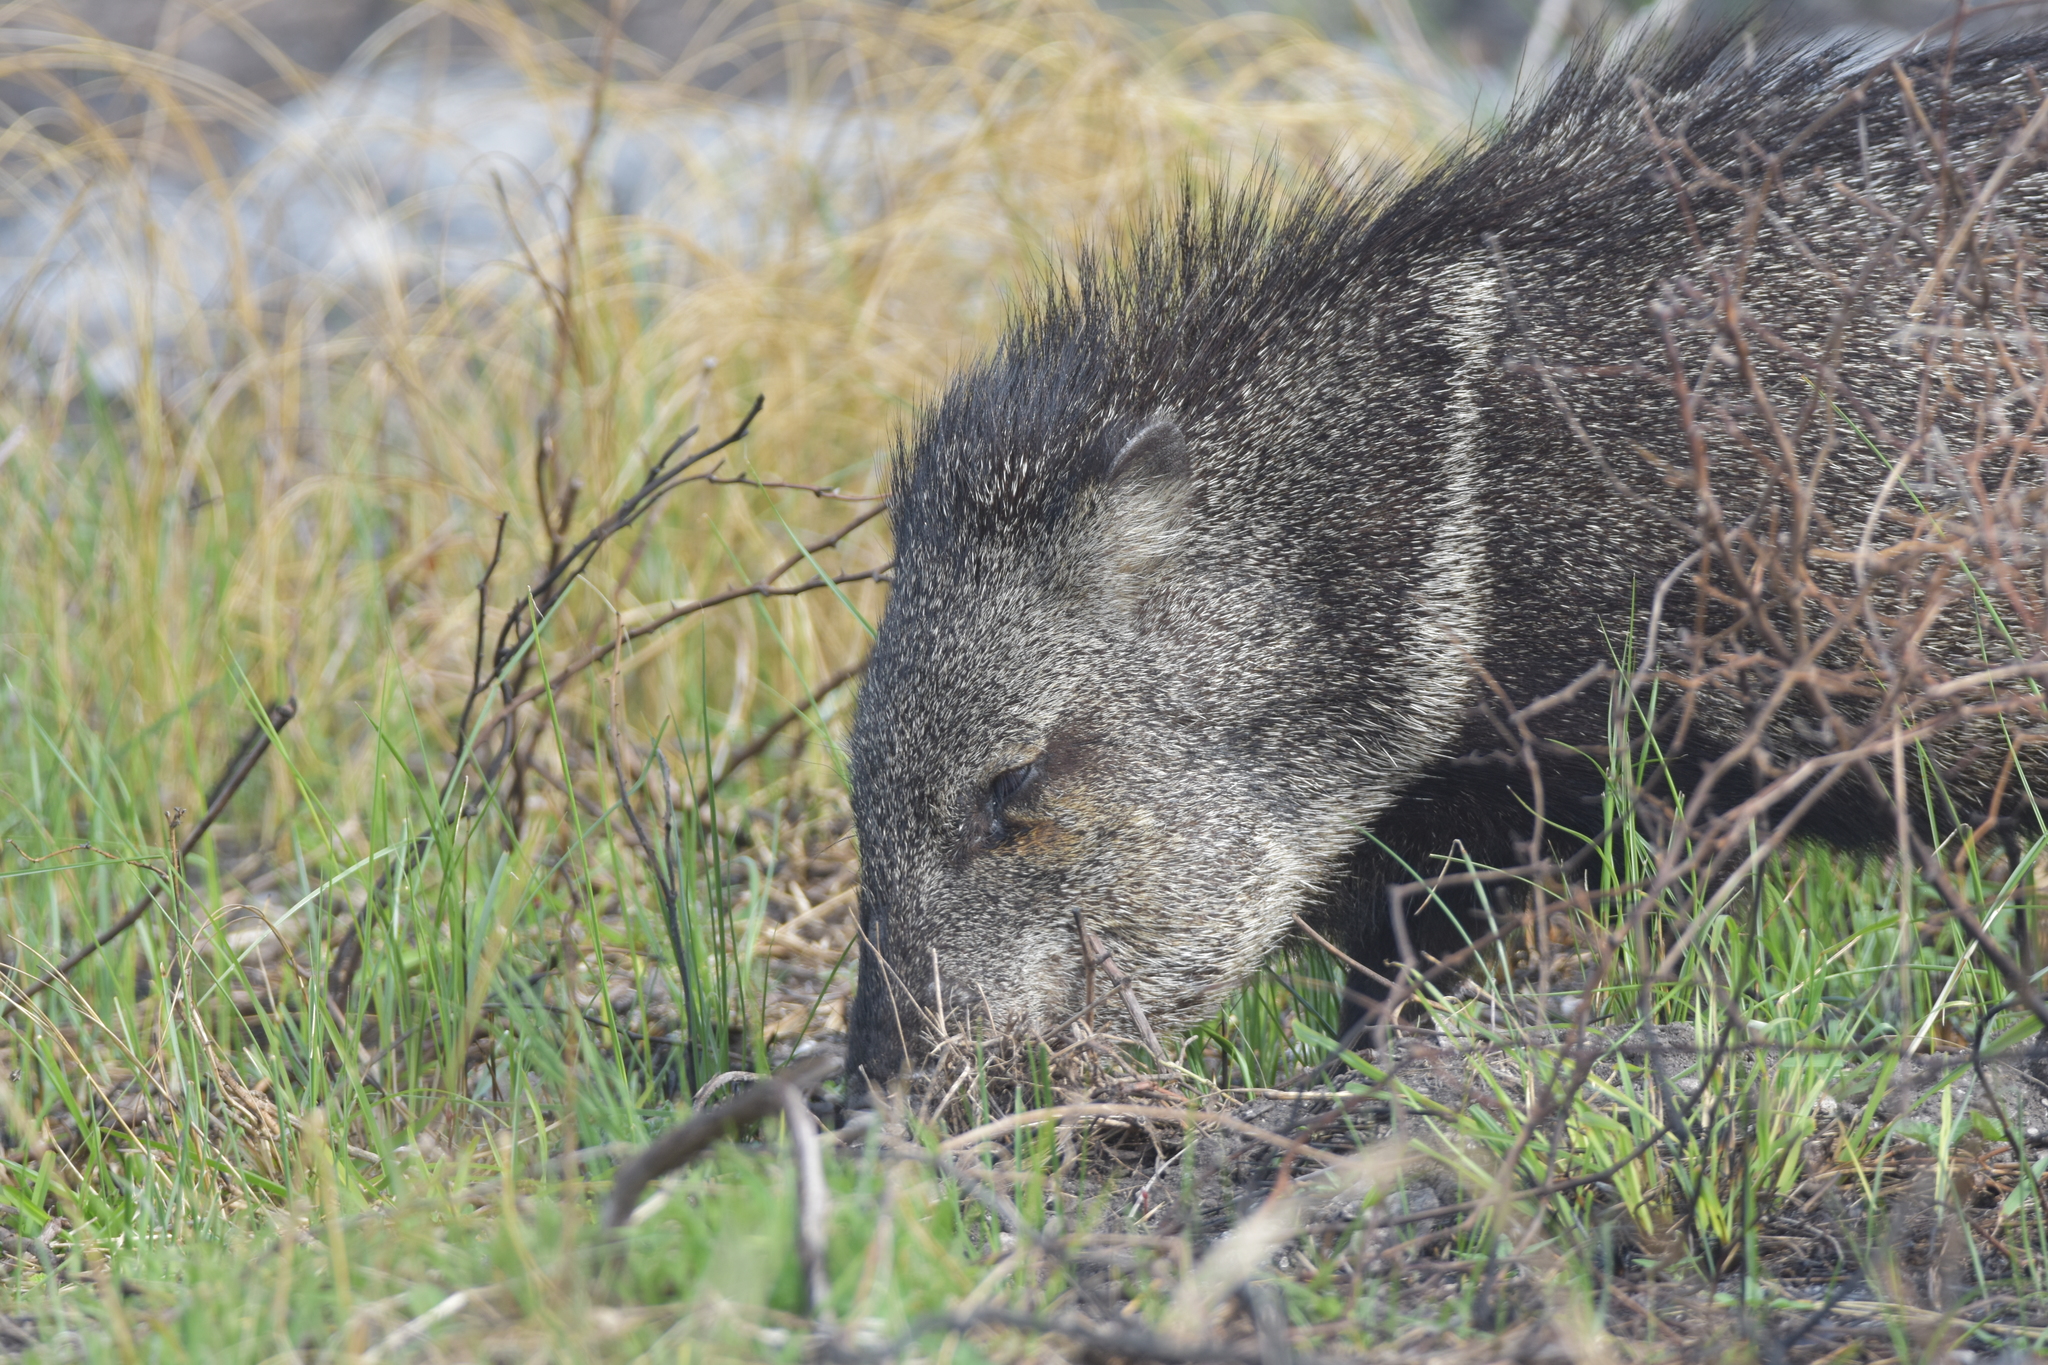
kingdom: Animalia
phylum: Chordata
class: Mammalia
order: Artiodactyla
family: Tayassuidae
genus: Pecari
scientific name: Pecari tajacu
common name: Collared peccary
